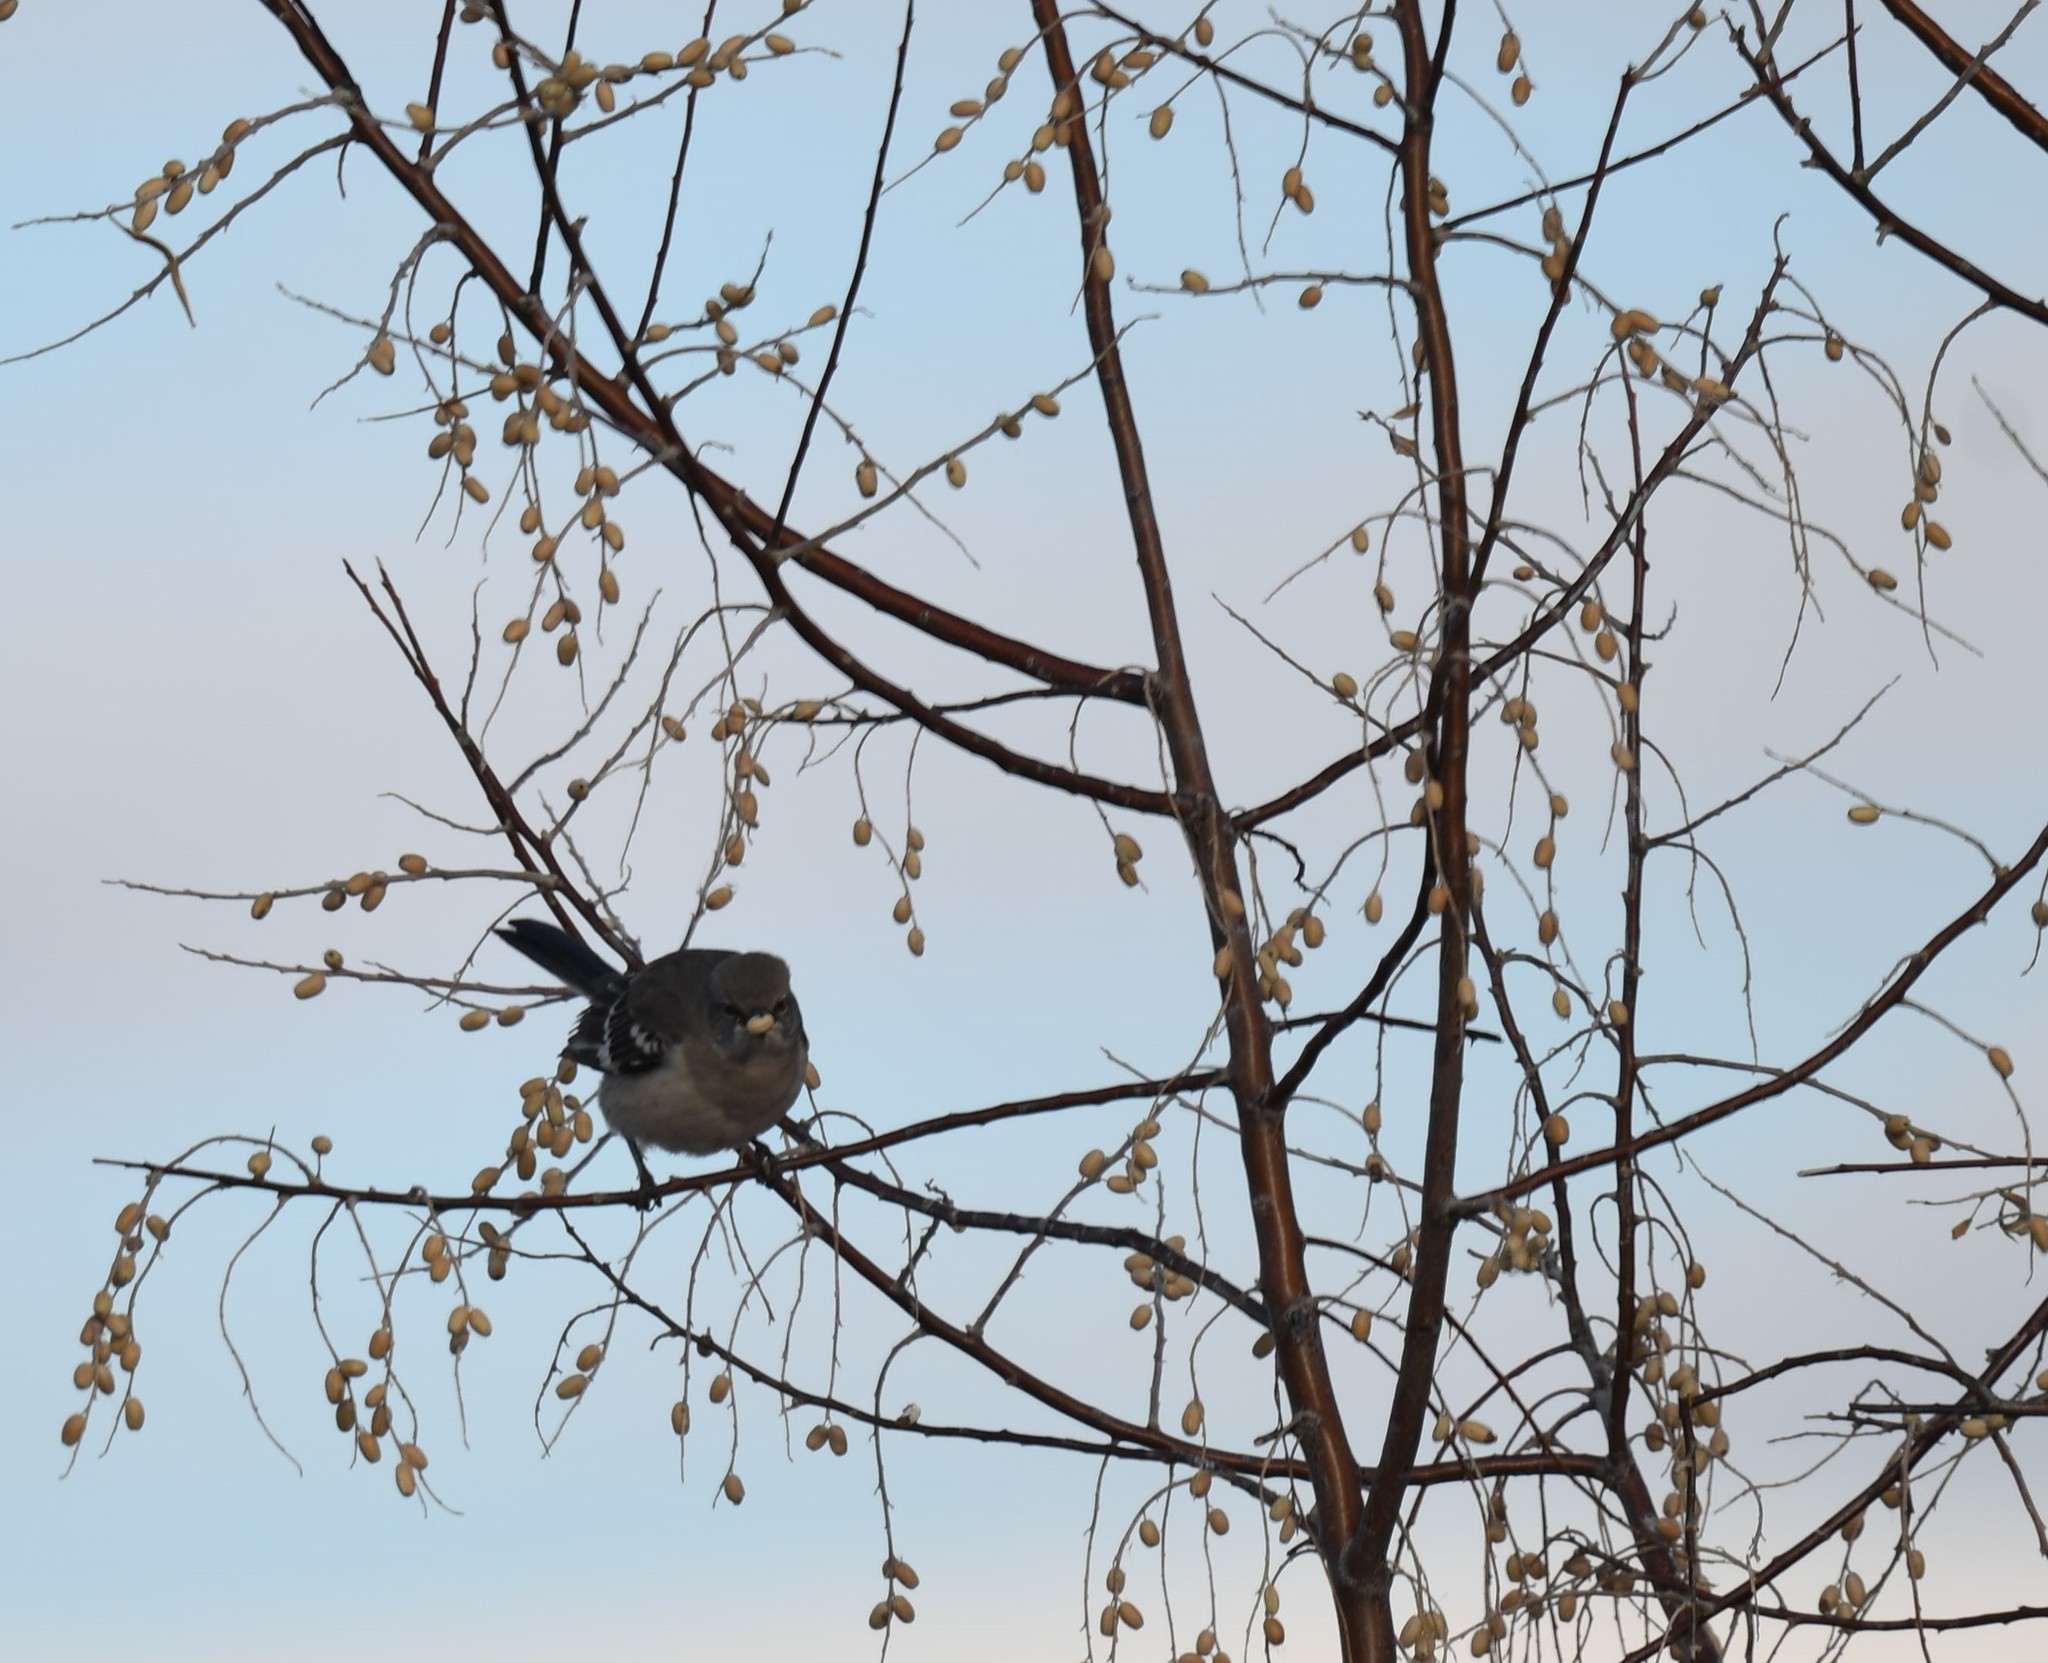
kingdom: Animalia
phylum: Chordata
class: Aves
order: Passeriformes
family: Mimidae
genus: Mimus
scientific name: Mimus polyglottos
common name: Northern mockingbird
